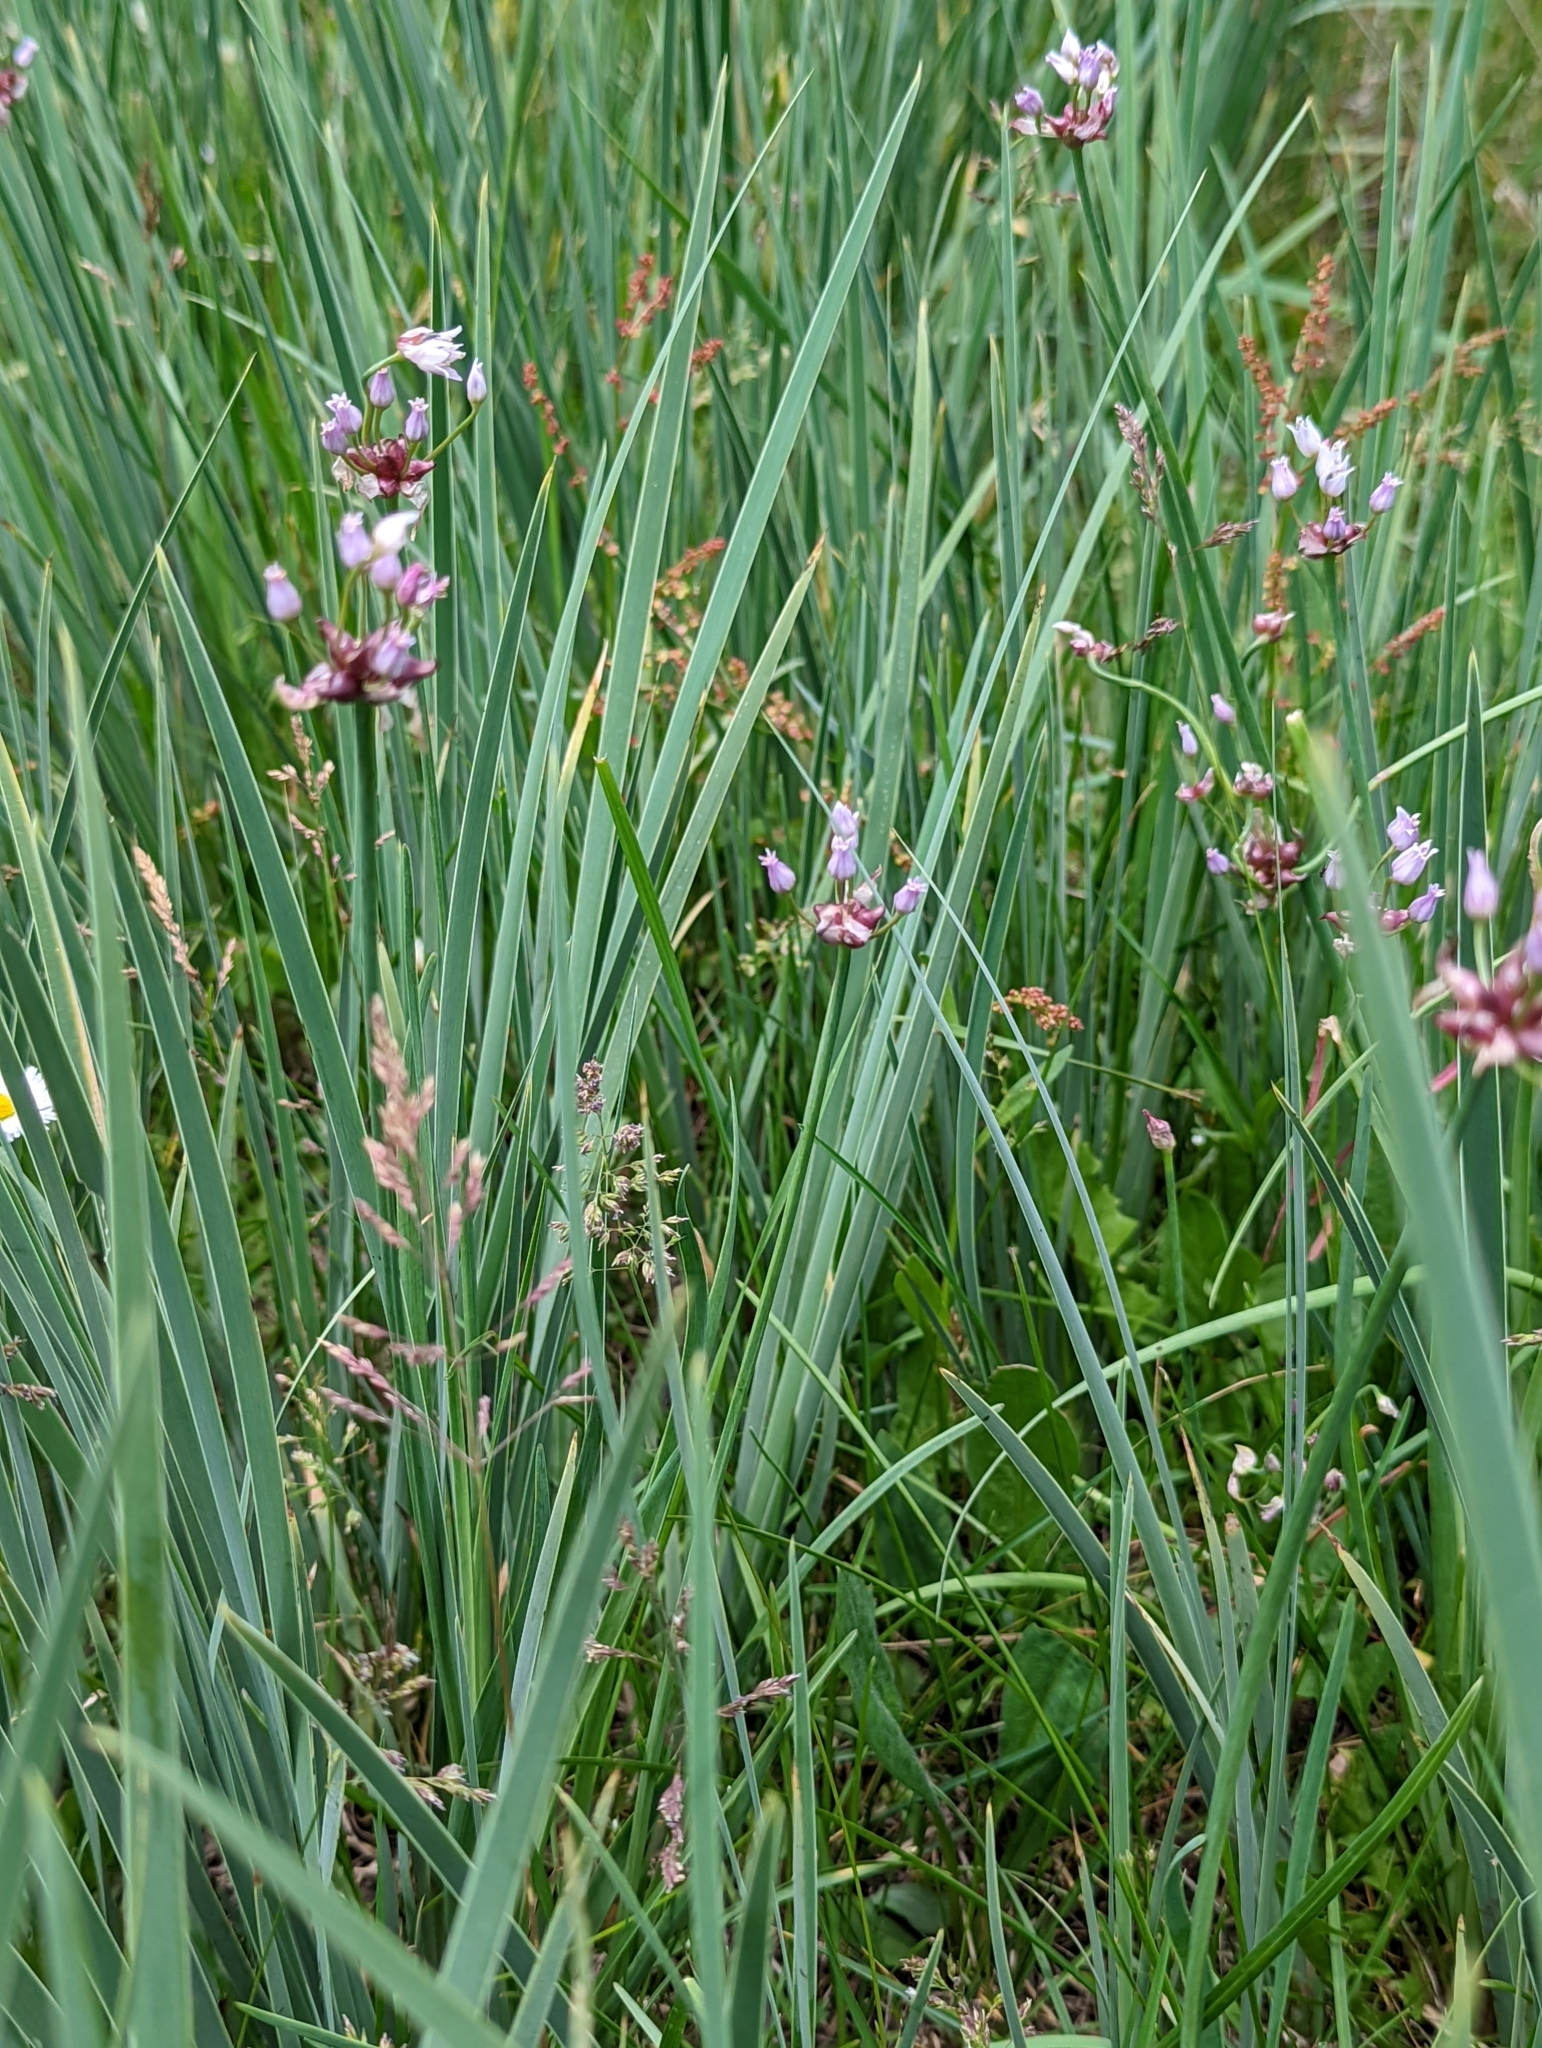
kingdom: Plantae
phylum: Tracheophyta
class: Liliopsida
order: Asparagales
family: Amaryllidaceae
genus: Allium
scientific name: Allium geyeri
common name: Geyer's onion
